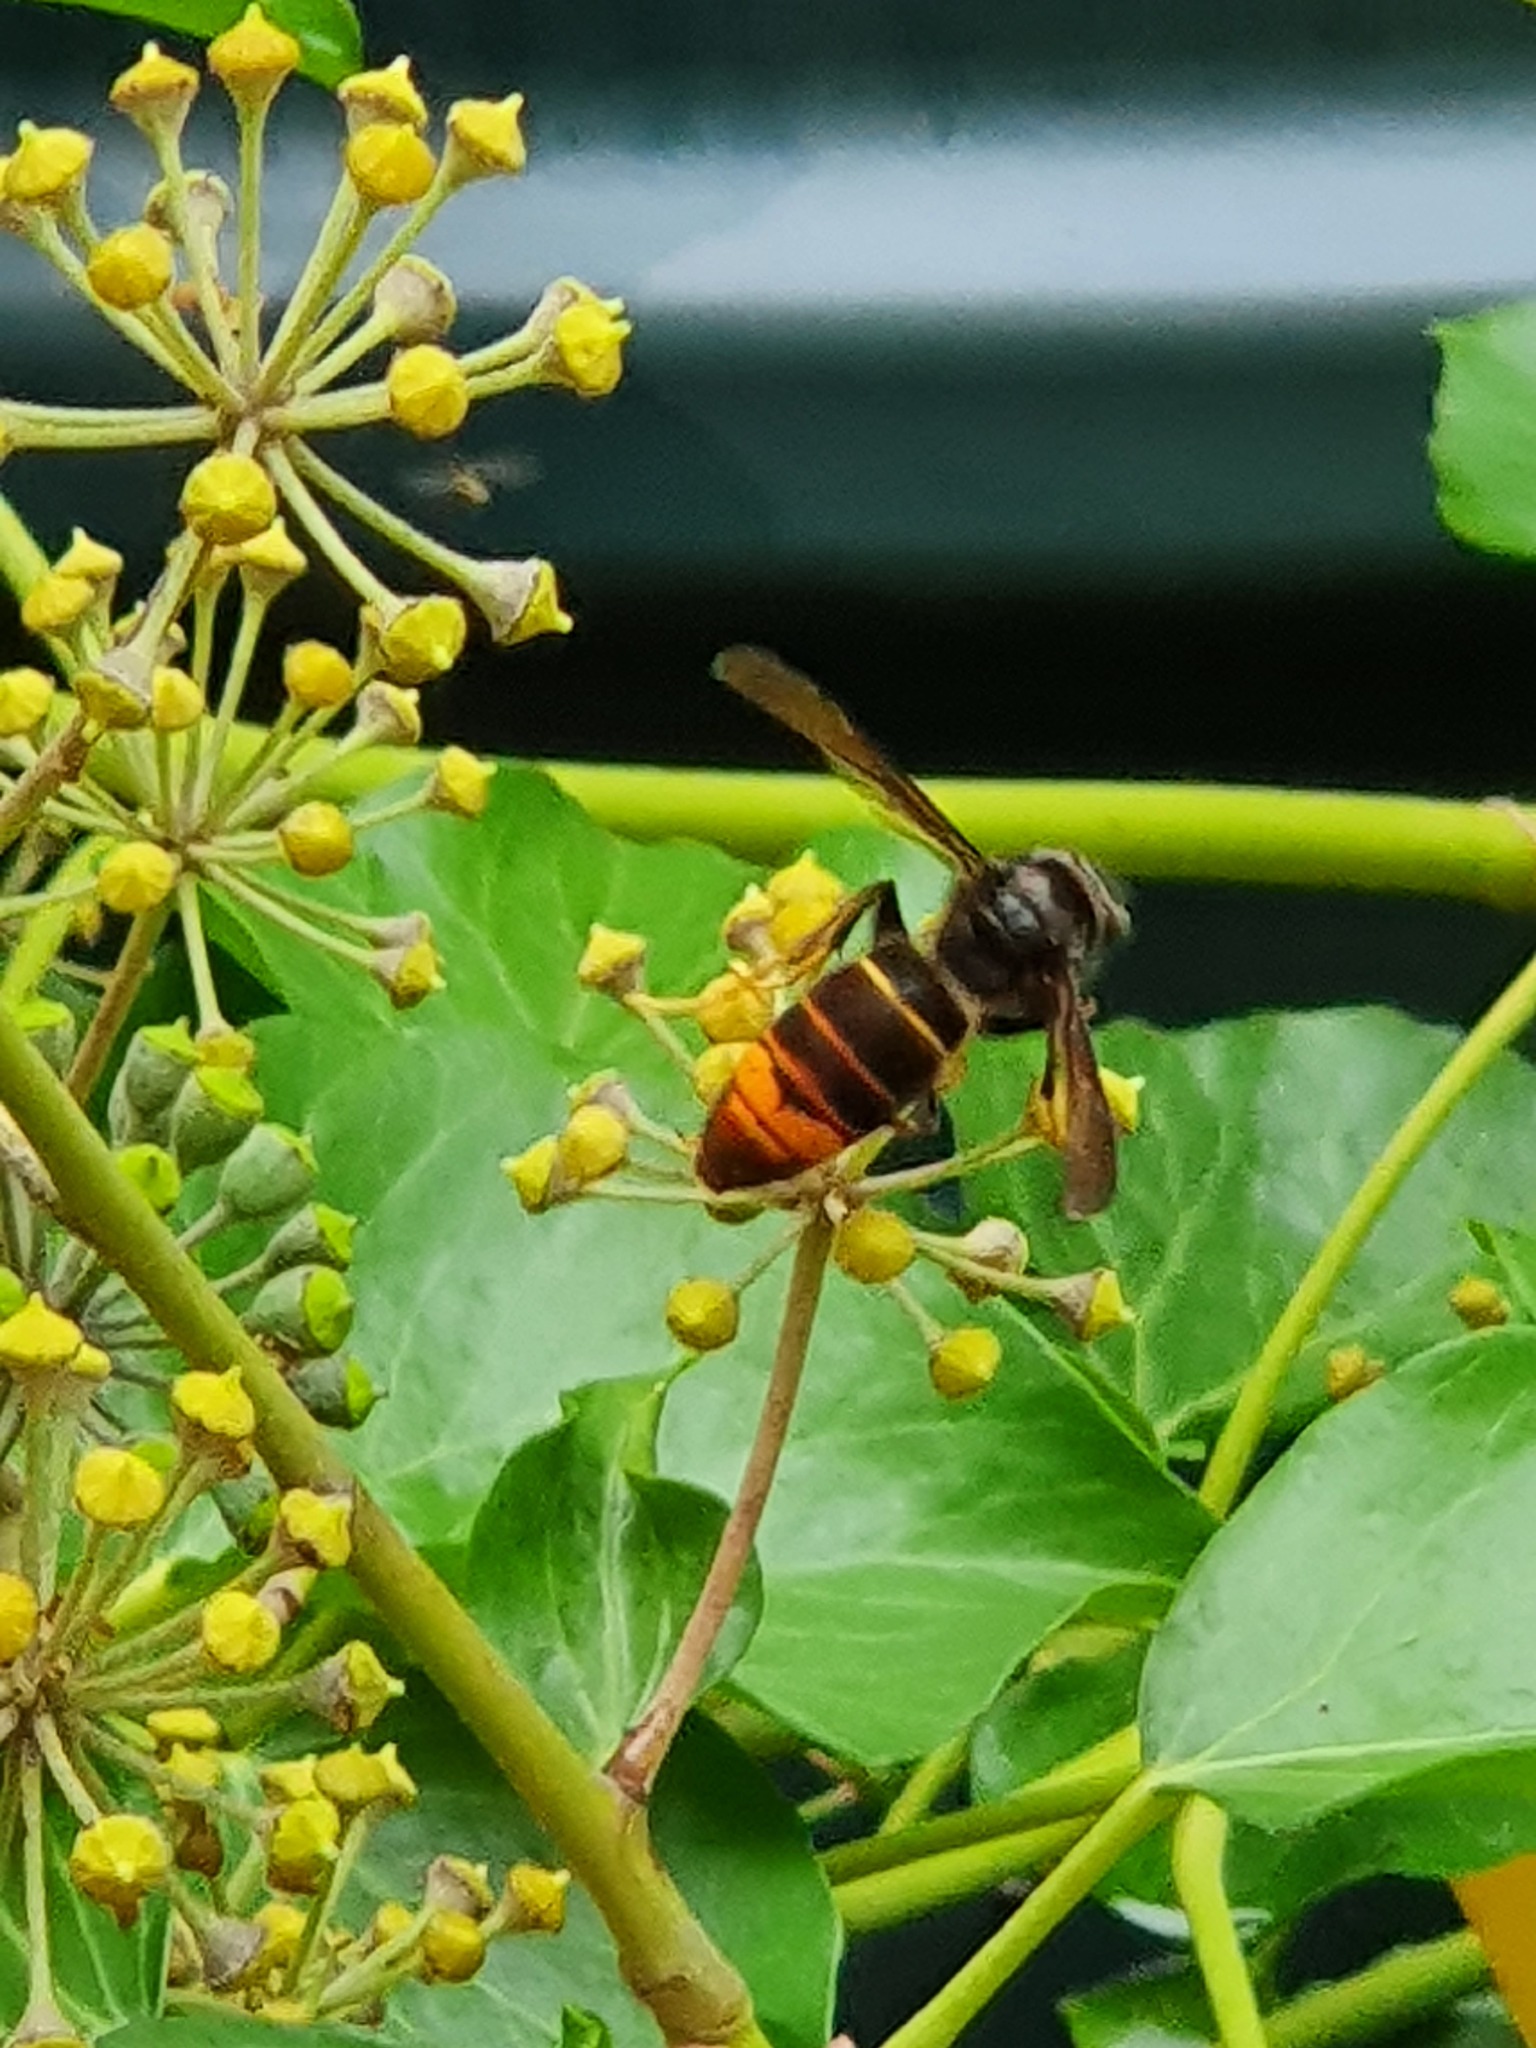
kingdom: Animalia
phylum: Arthropoda
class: Insecta
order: Hymenoptera
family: Vespidae
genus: Vespa
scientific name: Vespa velutina
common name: Asian hornet
